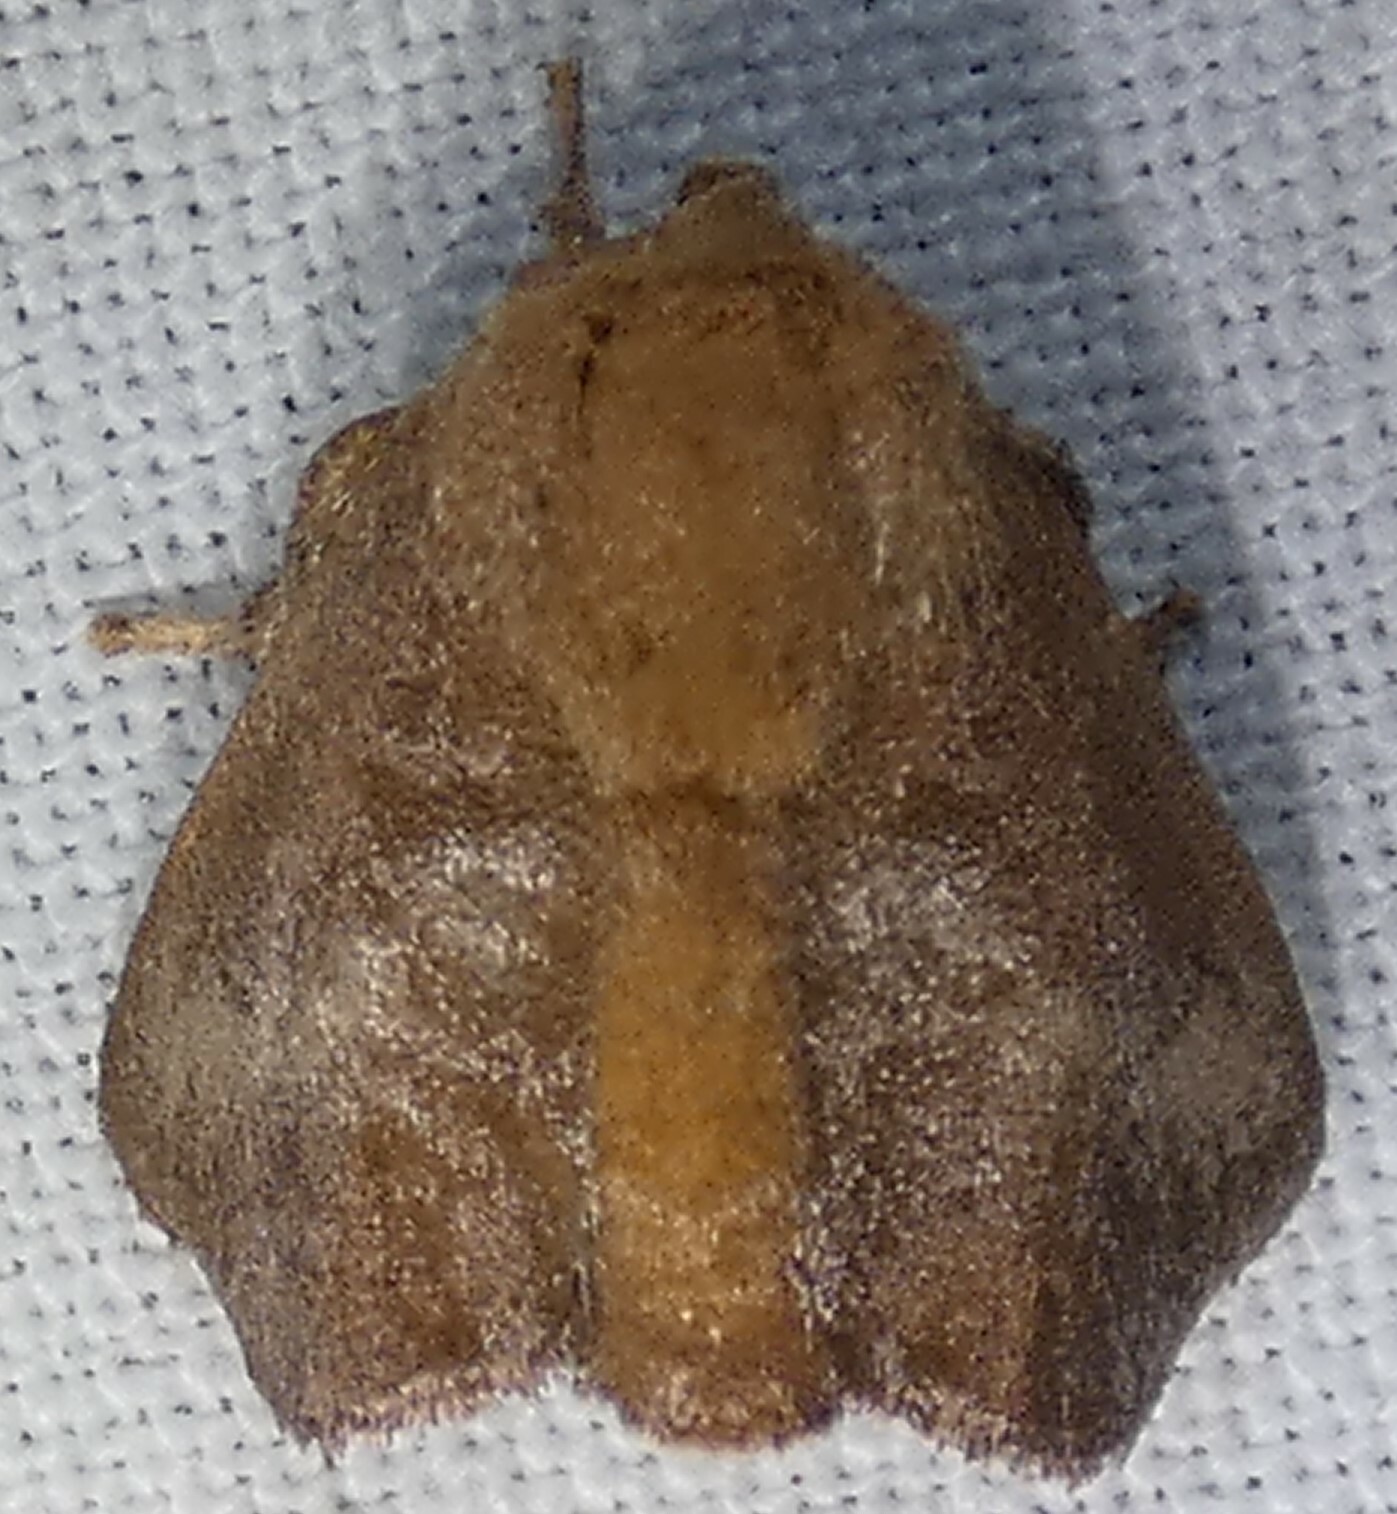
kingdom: Animalia
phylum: Arthropoda
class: Insecta
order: Lepidoptera
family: Limacodidae
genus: Isa
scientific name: Isa textula
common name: Crowned slug moth
